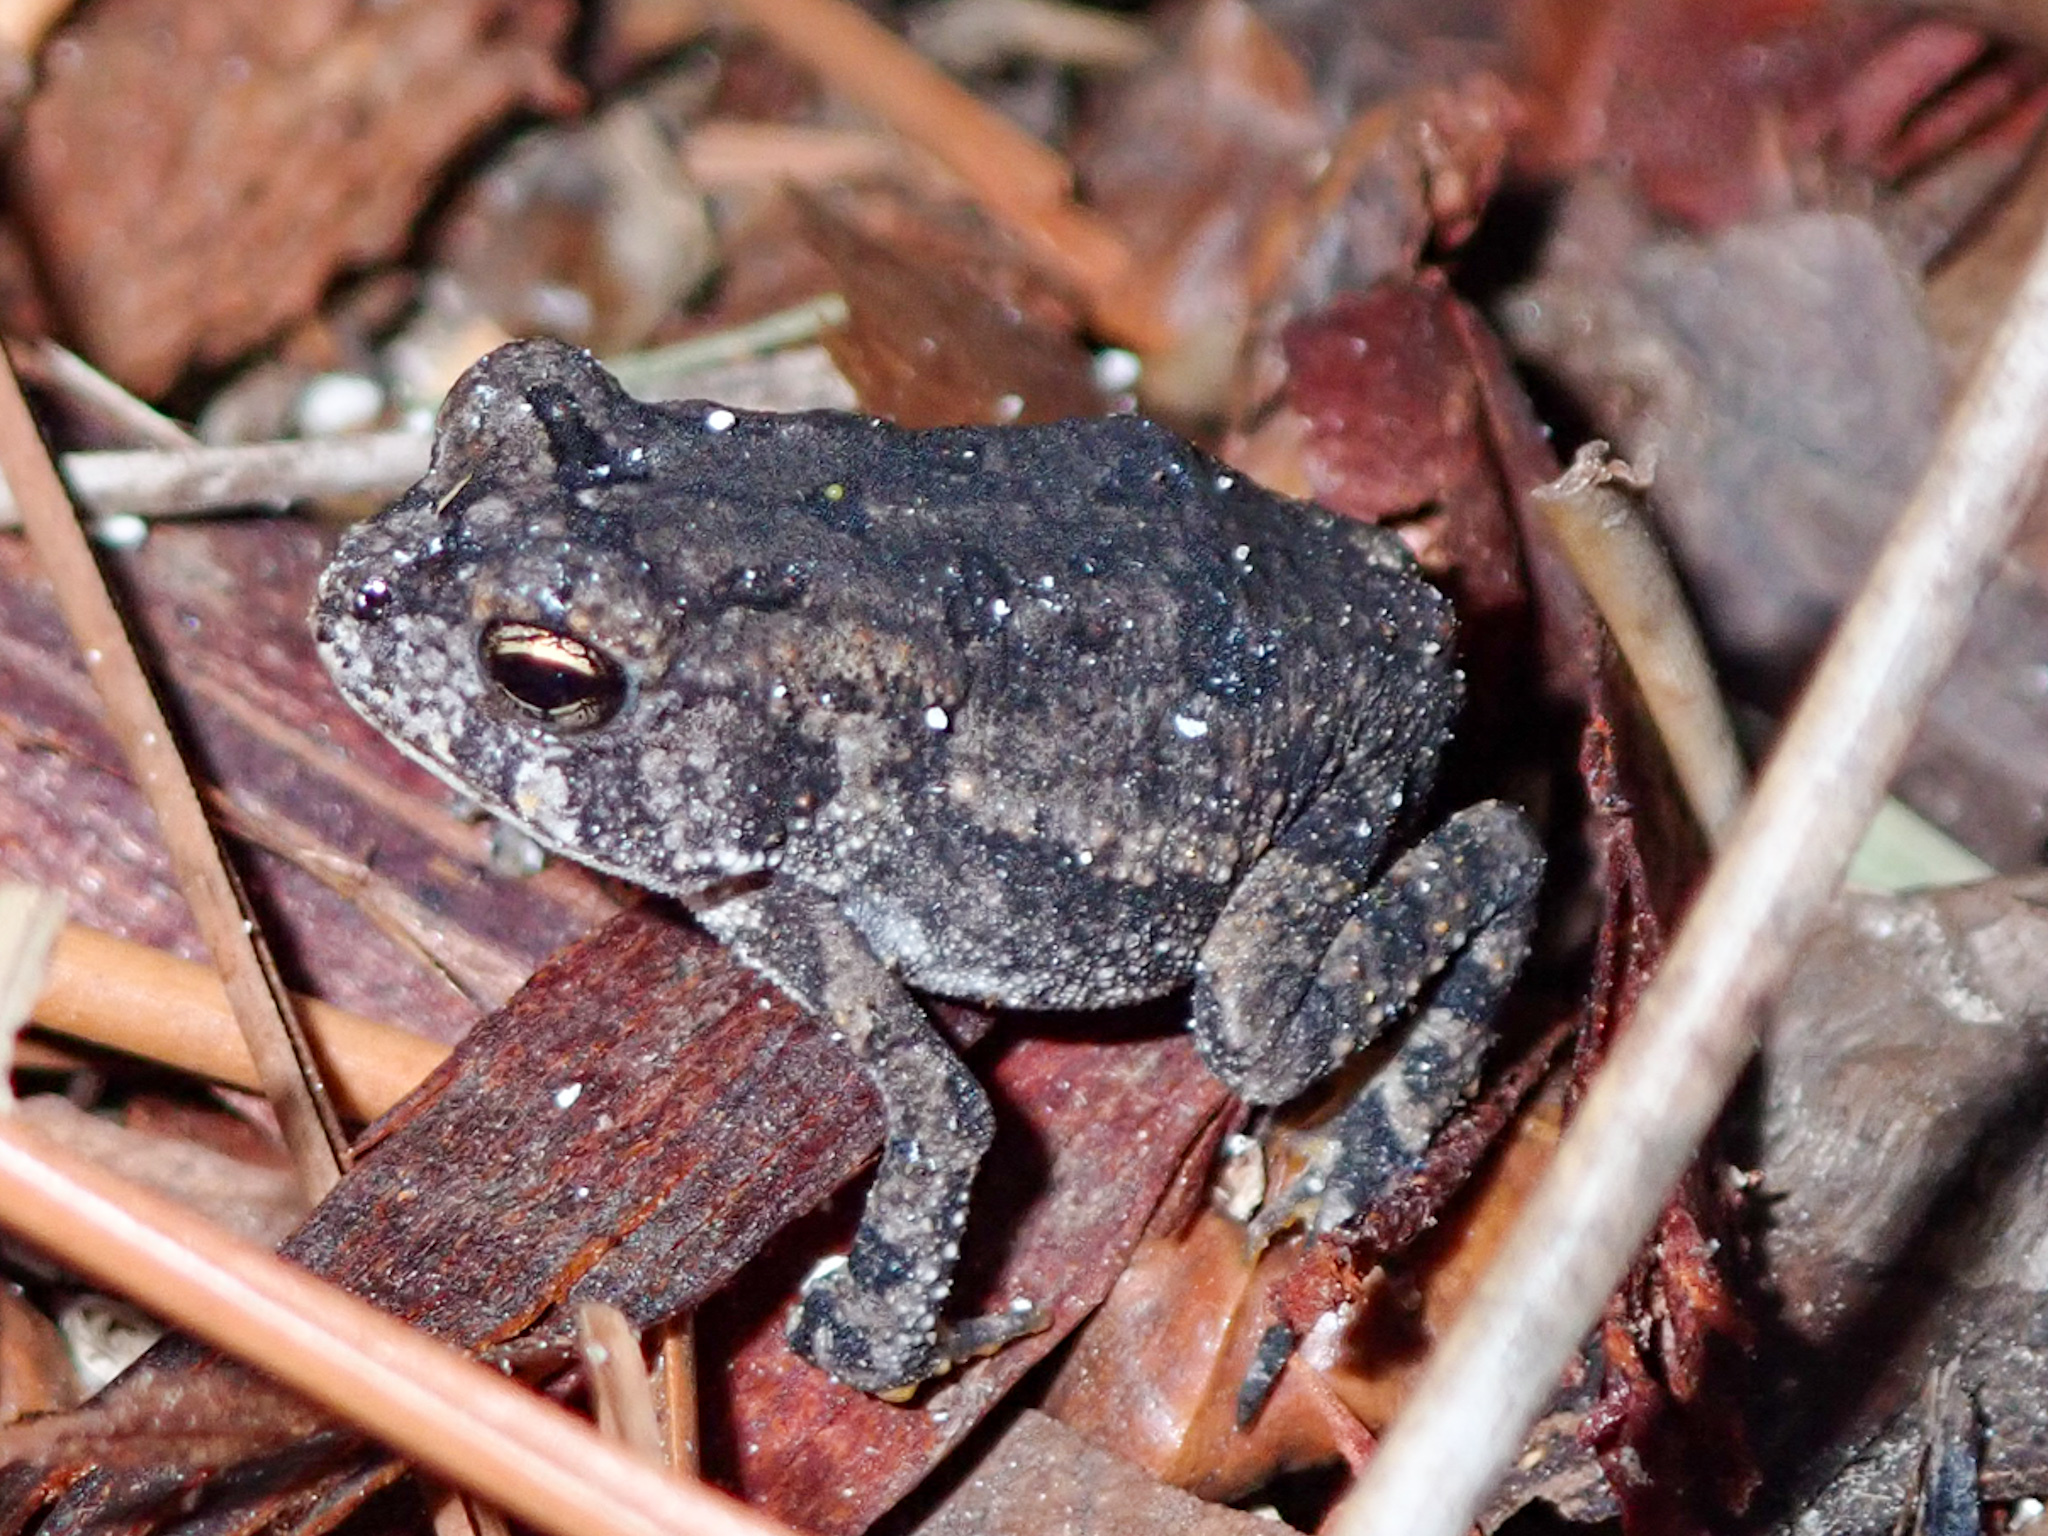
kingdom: Animalia
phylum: Chordata
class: Amphibia
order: Anura
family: Bufonidae
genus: Anaxyrus
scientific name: Anaxyrus terrestris
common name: Southern toad
